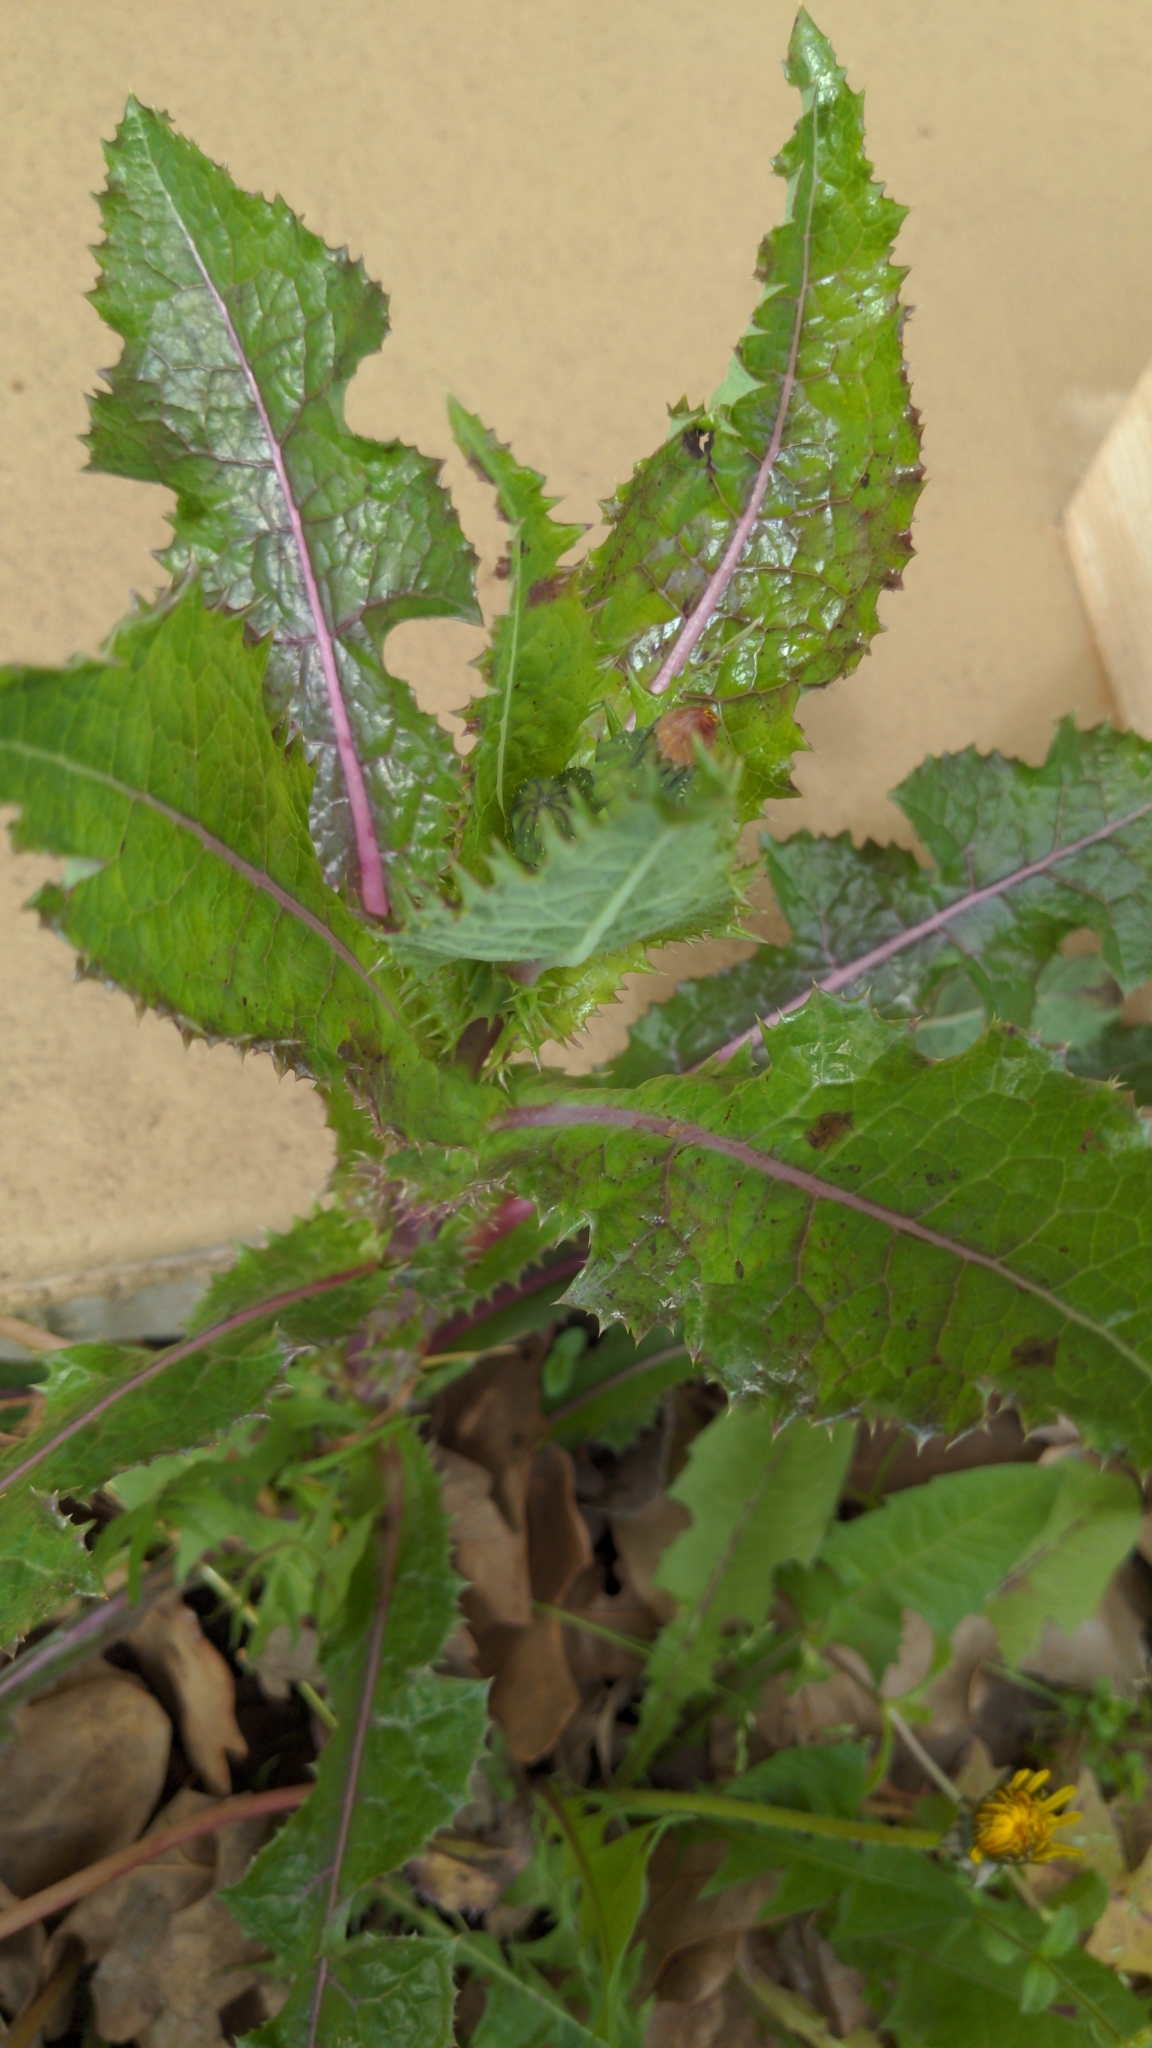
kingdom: Plantae
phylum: Tracheophyta
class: Magnoliopsida
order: Asterales
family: Asteraceae
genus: Sonchus
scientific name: Sonchus asper
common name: Prickly sow-thistle
